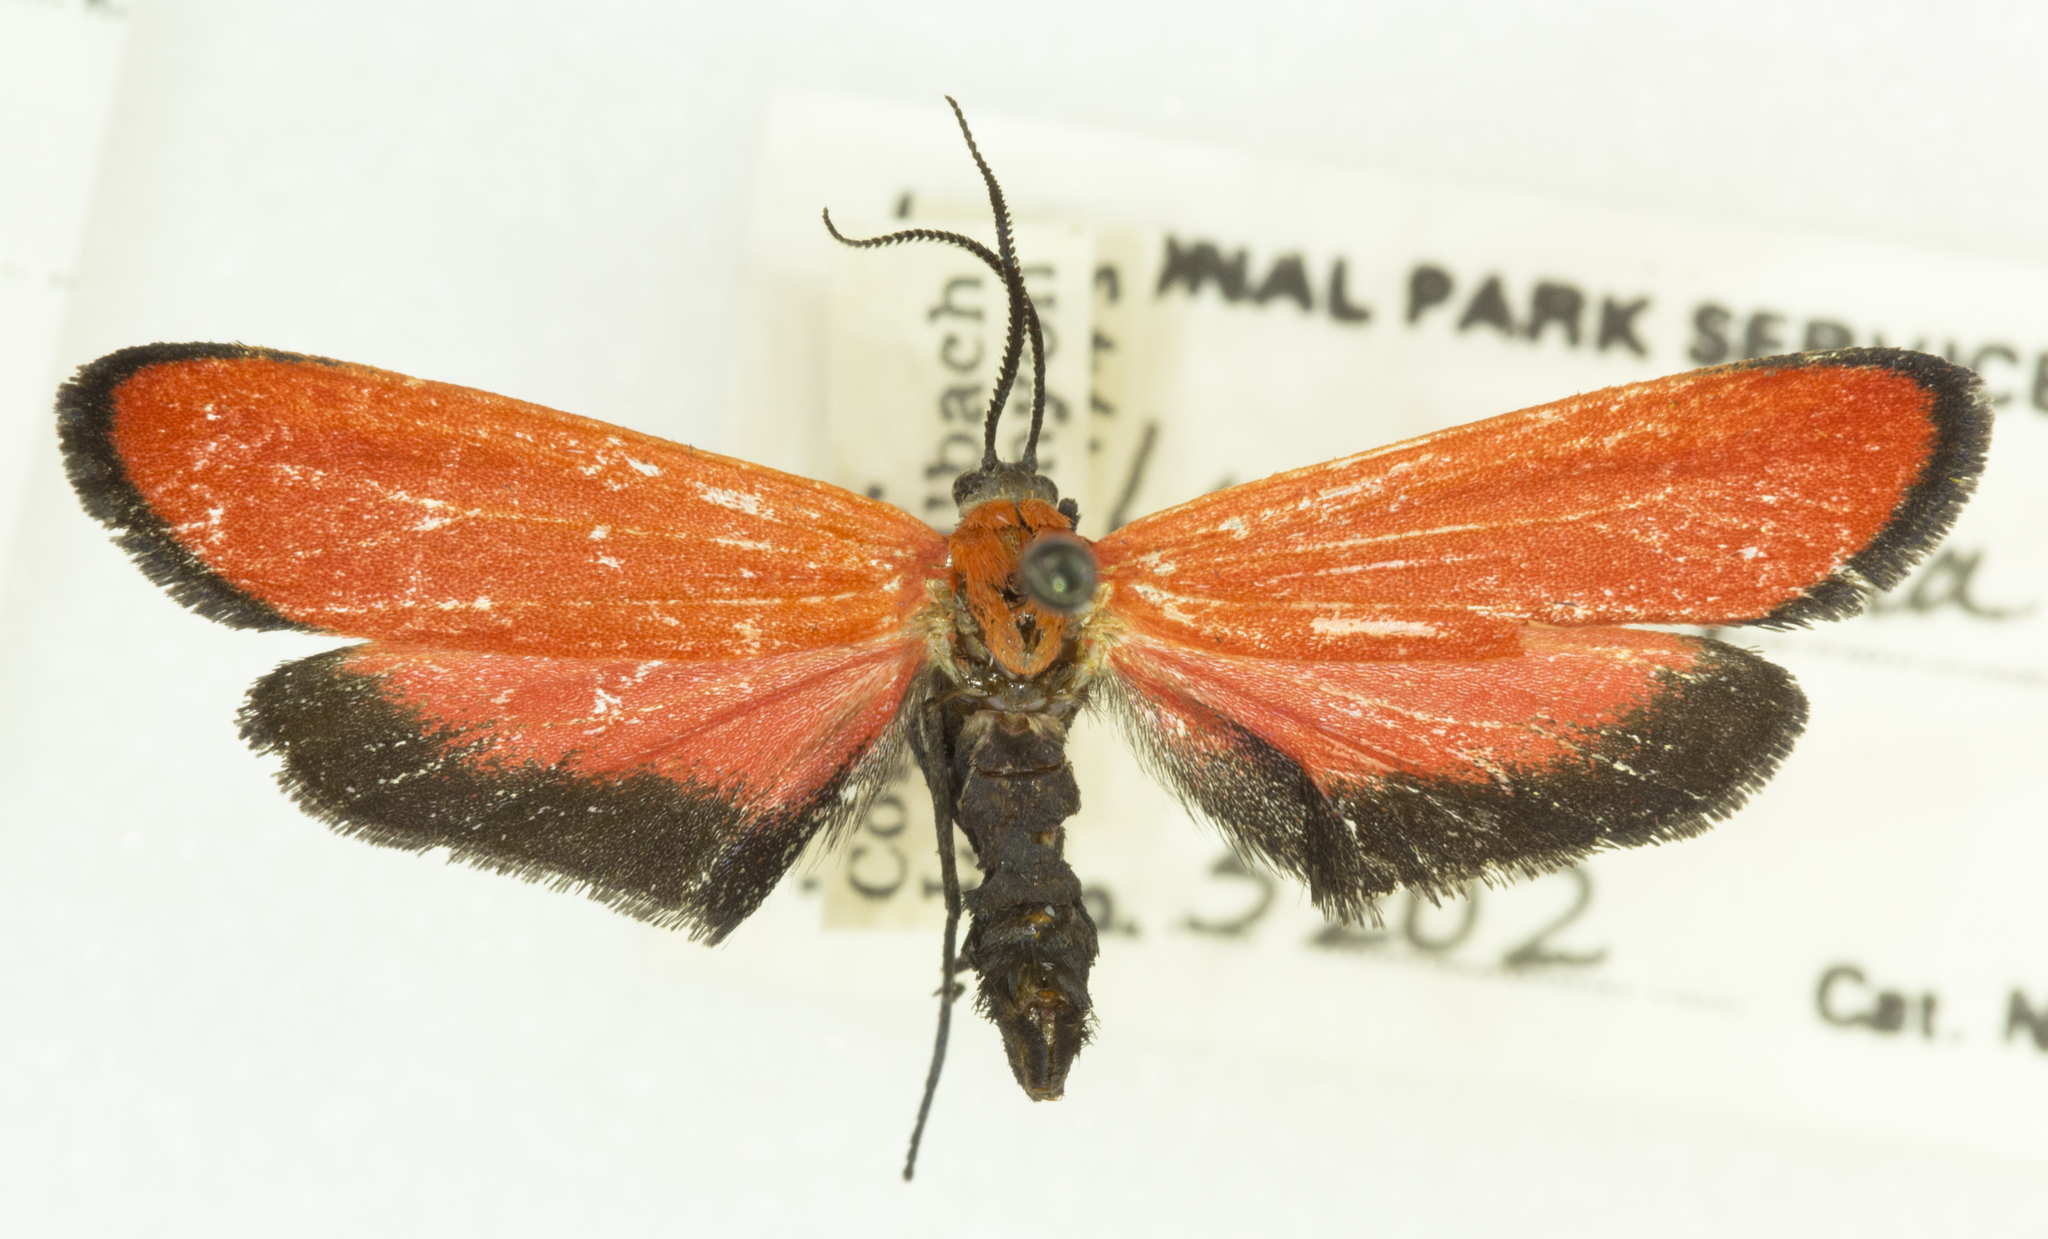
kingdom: Animalia
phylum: Arthropoda
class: Insecta
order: Lepidoptera
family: Erebidae
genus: Lycomorpha
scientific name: Lycomorpha grotei
